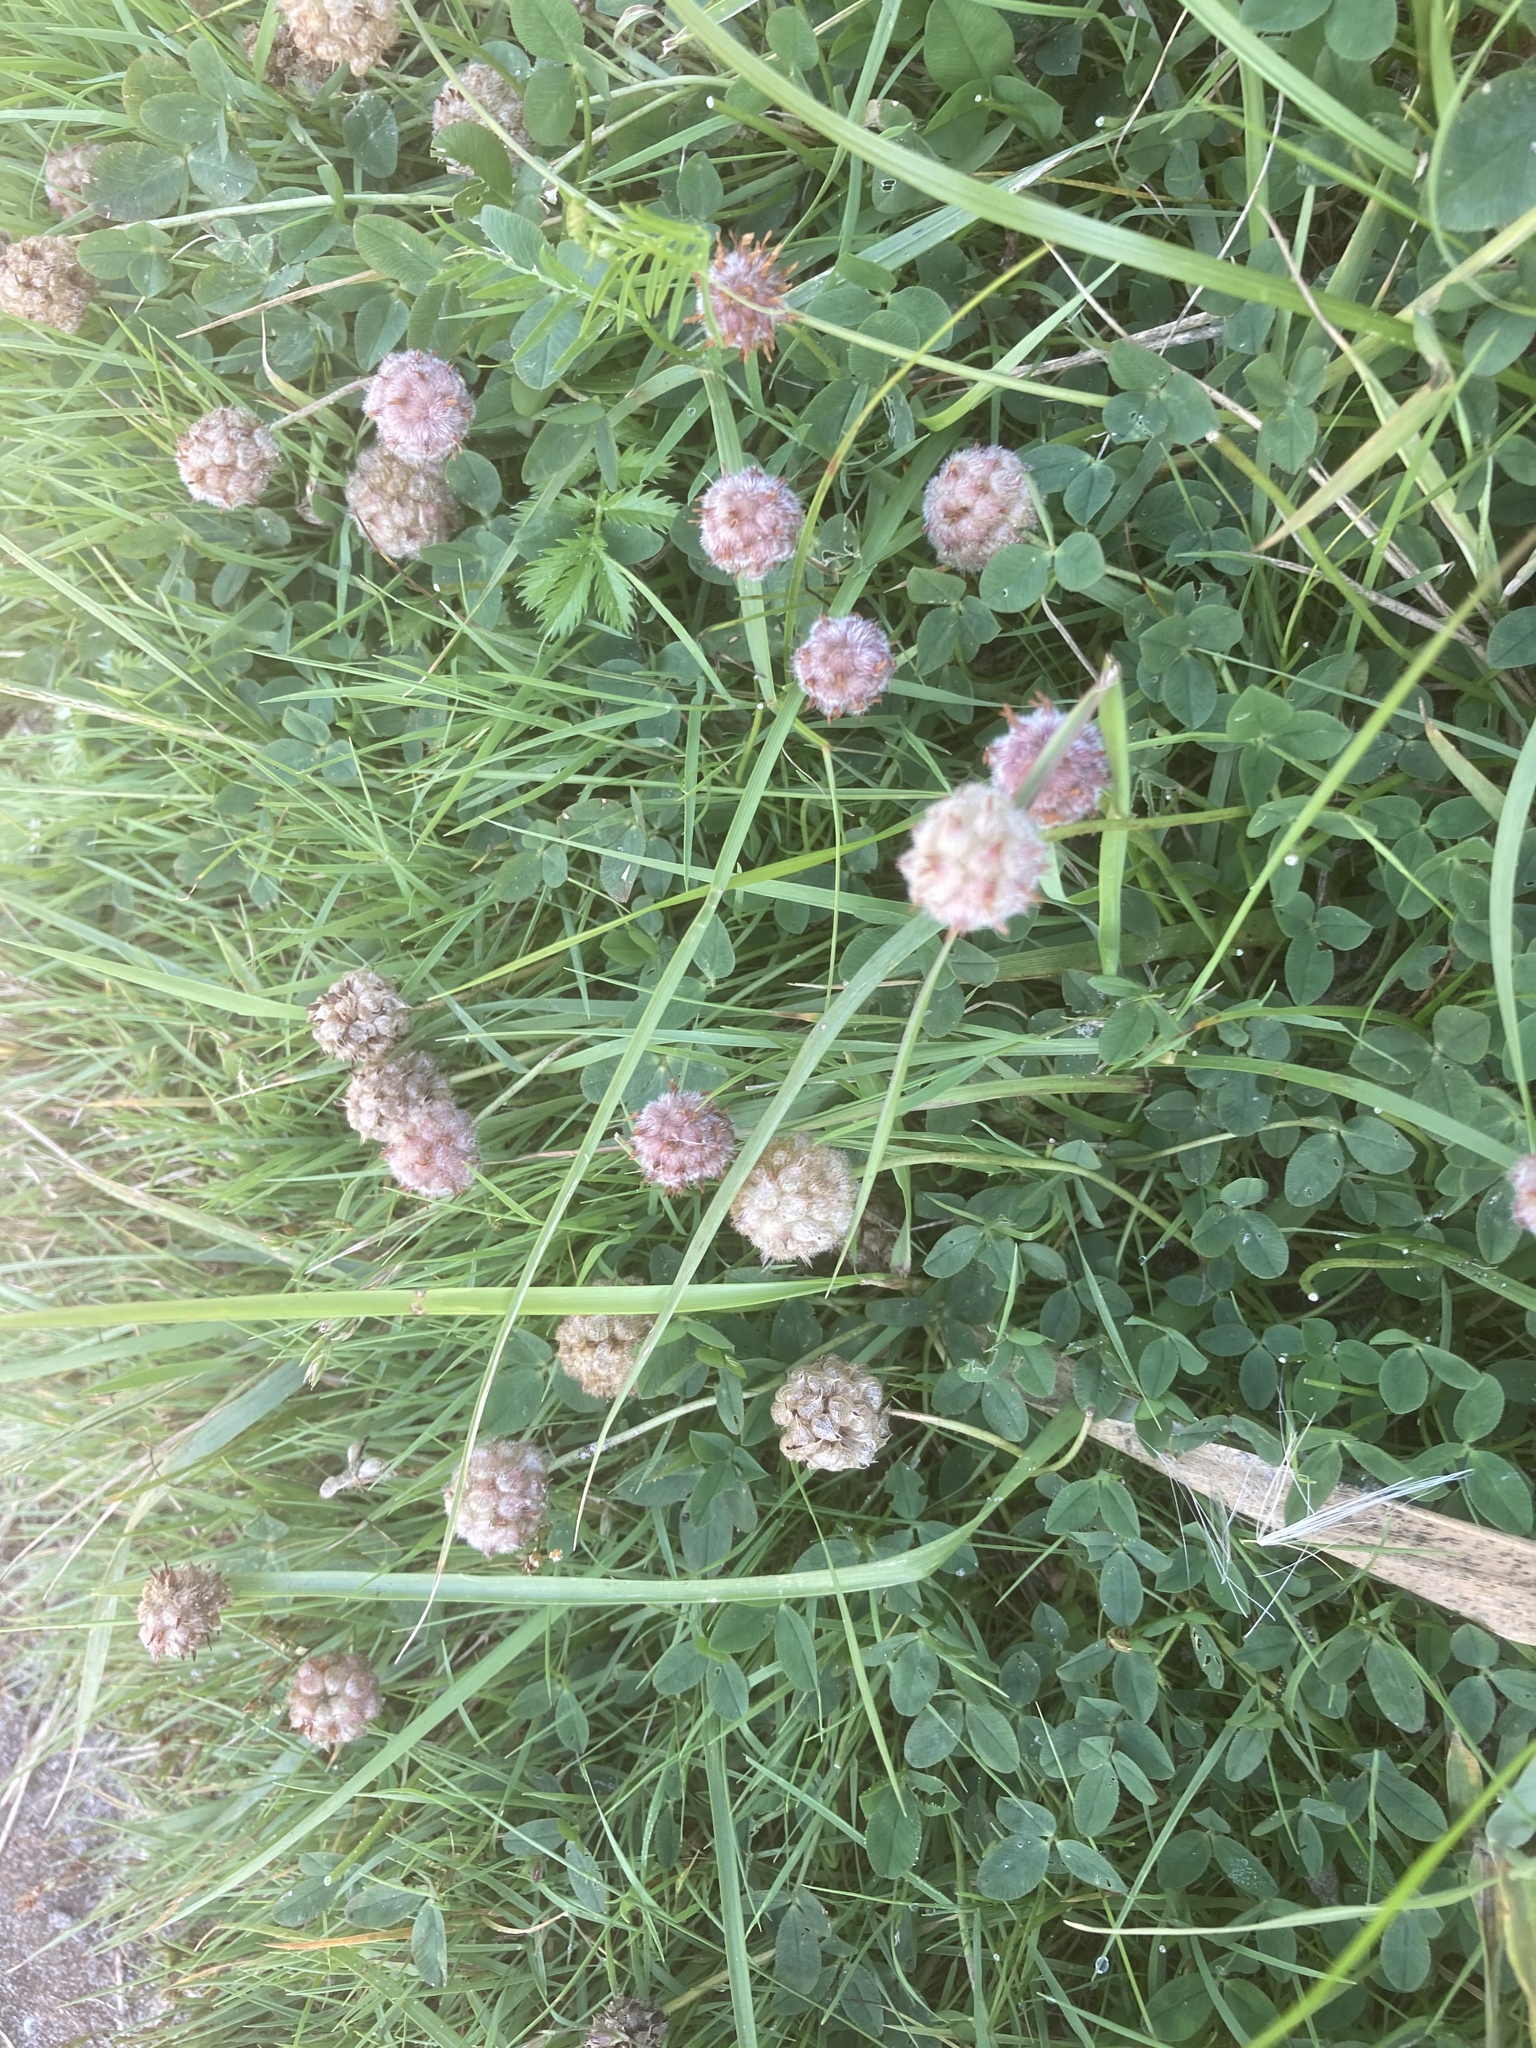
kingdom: Plantae
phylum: Tracheophyta
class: Magnoliopsida
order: Fabales
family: Fabaceae
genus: Trifolium
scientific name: Trifolium fragiferum
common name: Strawberry clover
